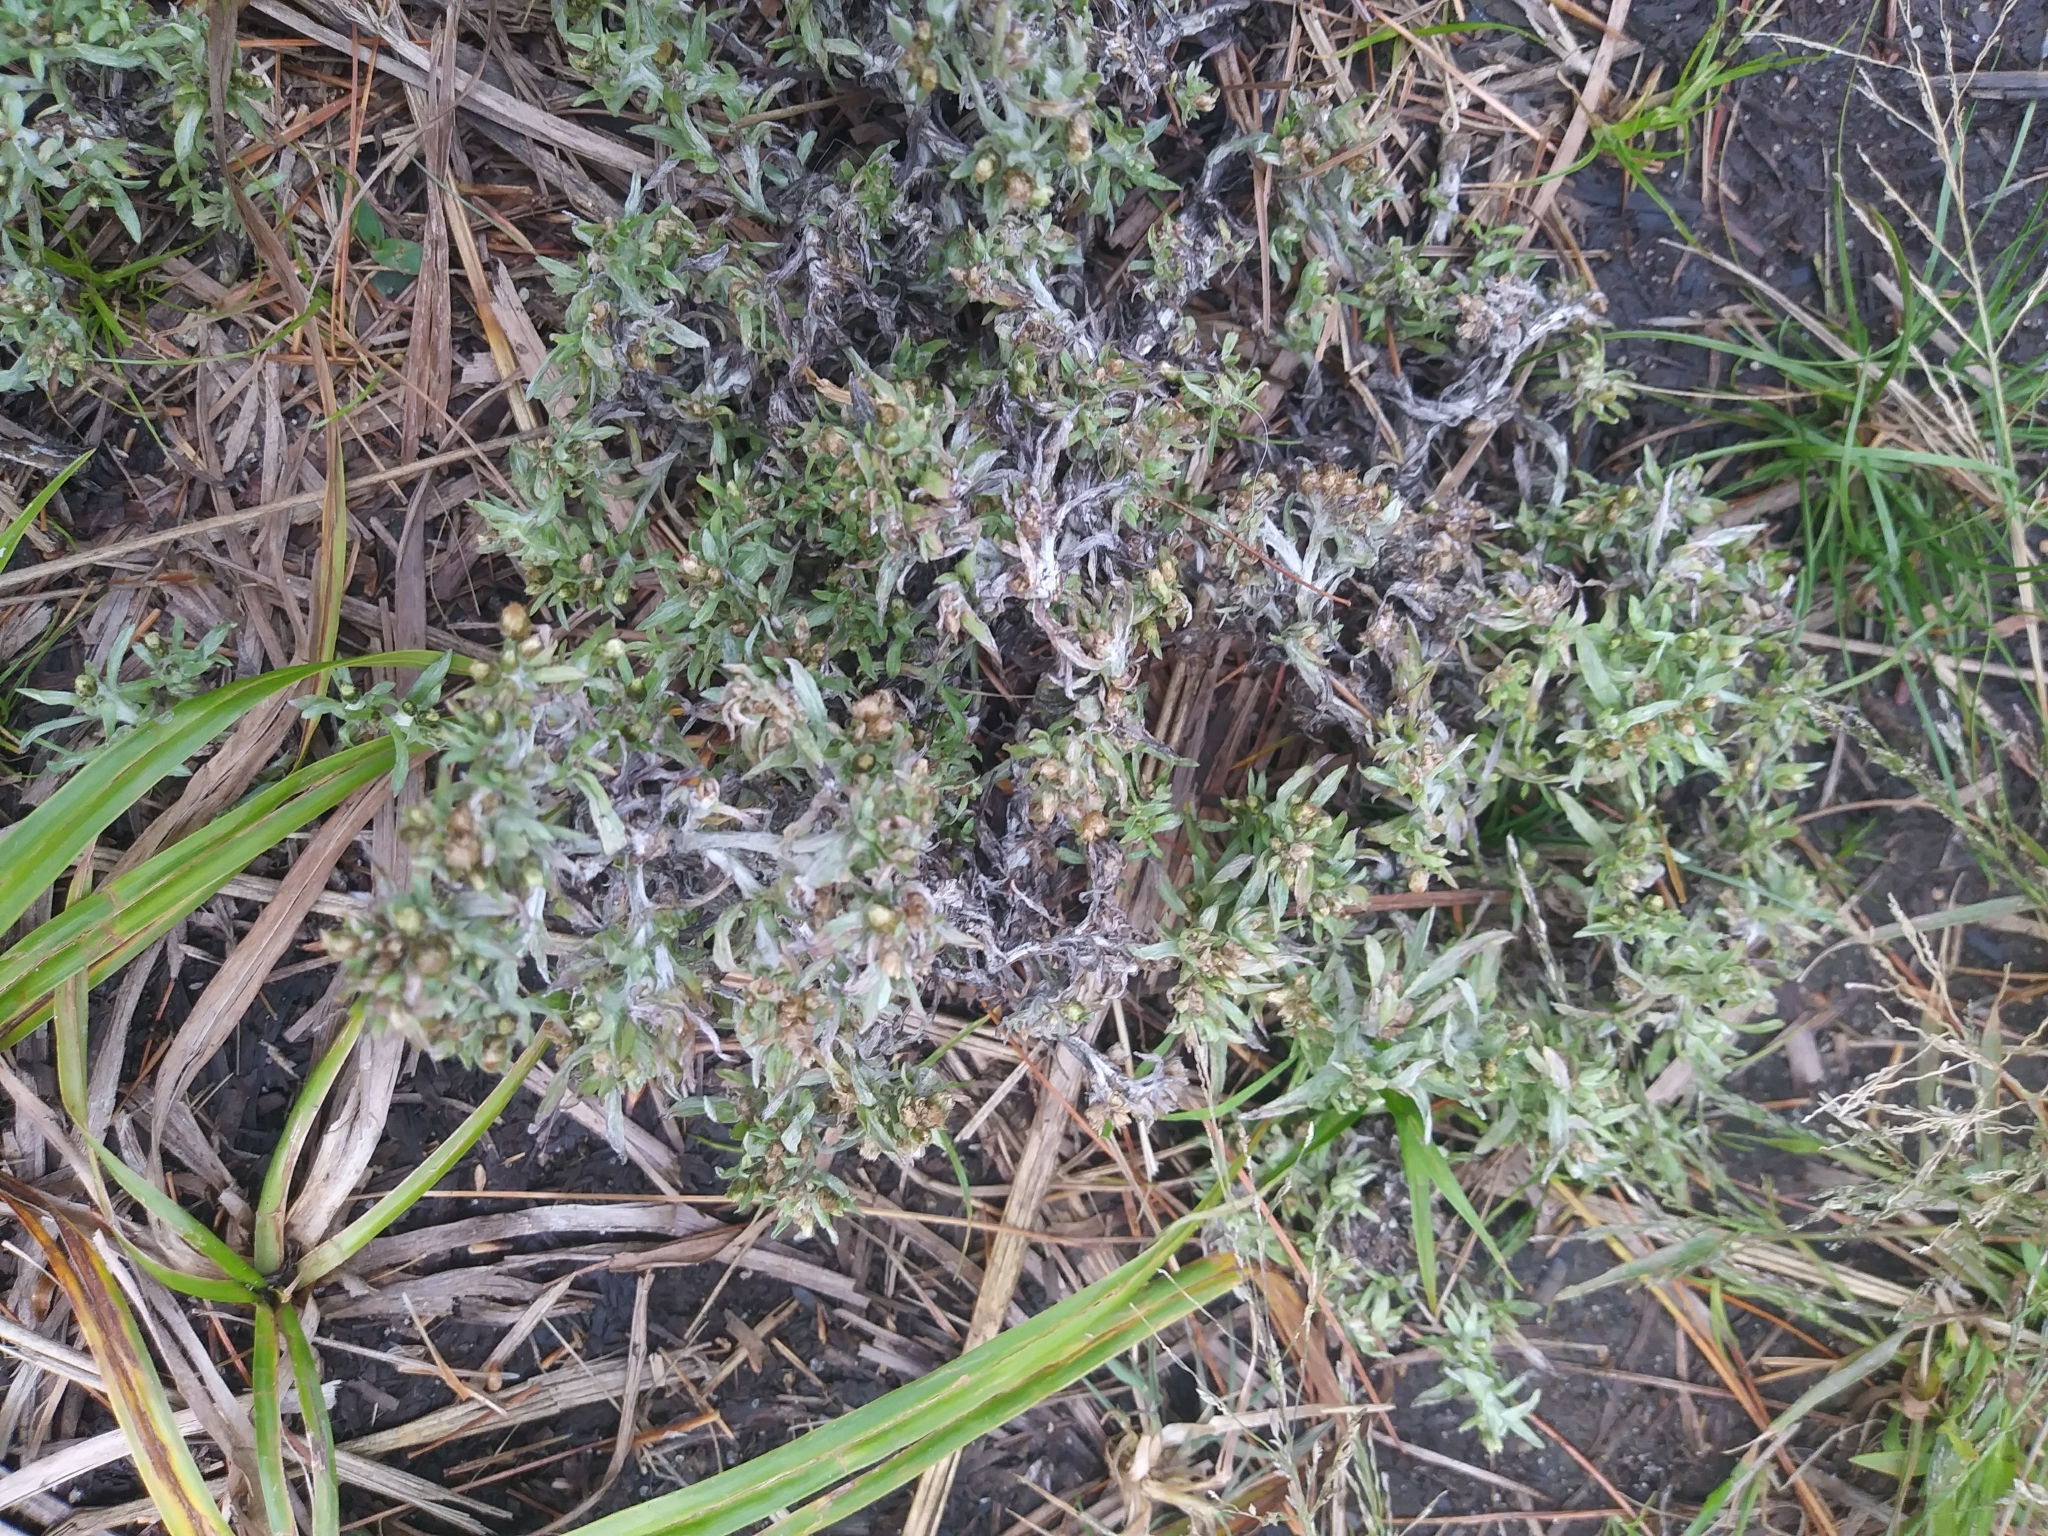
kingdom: Plantae
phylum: Tracheophyta
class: Magnoliopsida
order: Asterales
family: Asteraceae
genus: Gnaphalium
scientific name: Gnaphalium uliginosum
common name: Marsh cudweed
